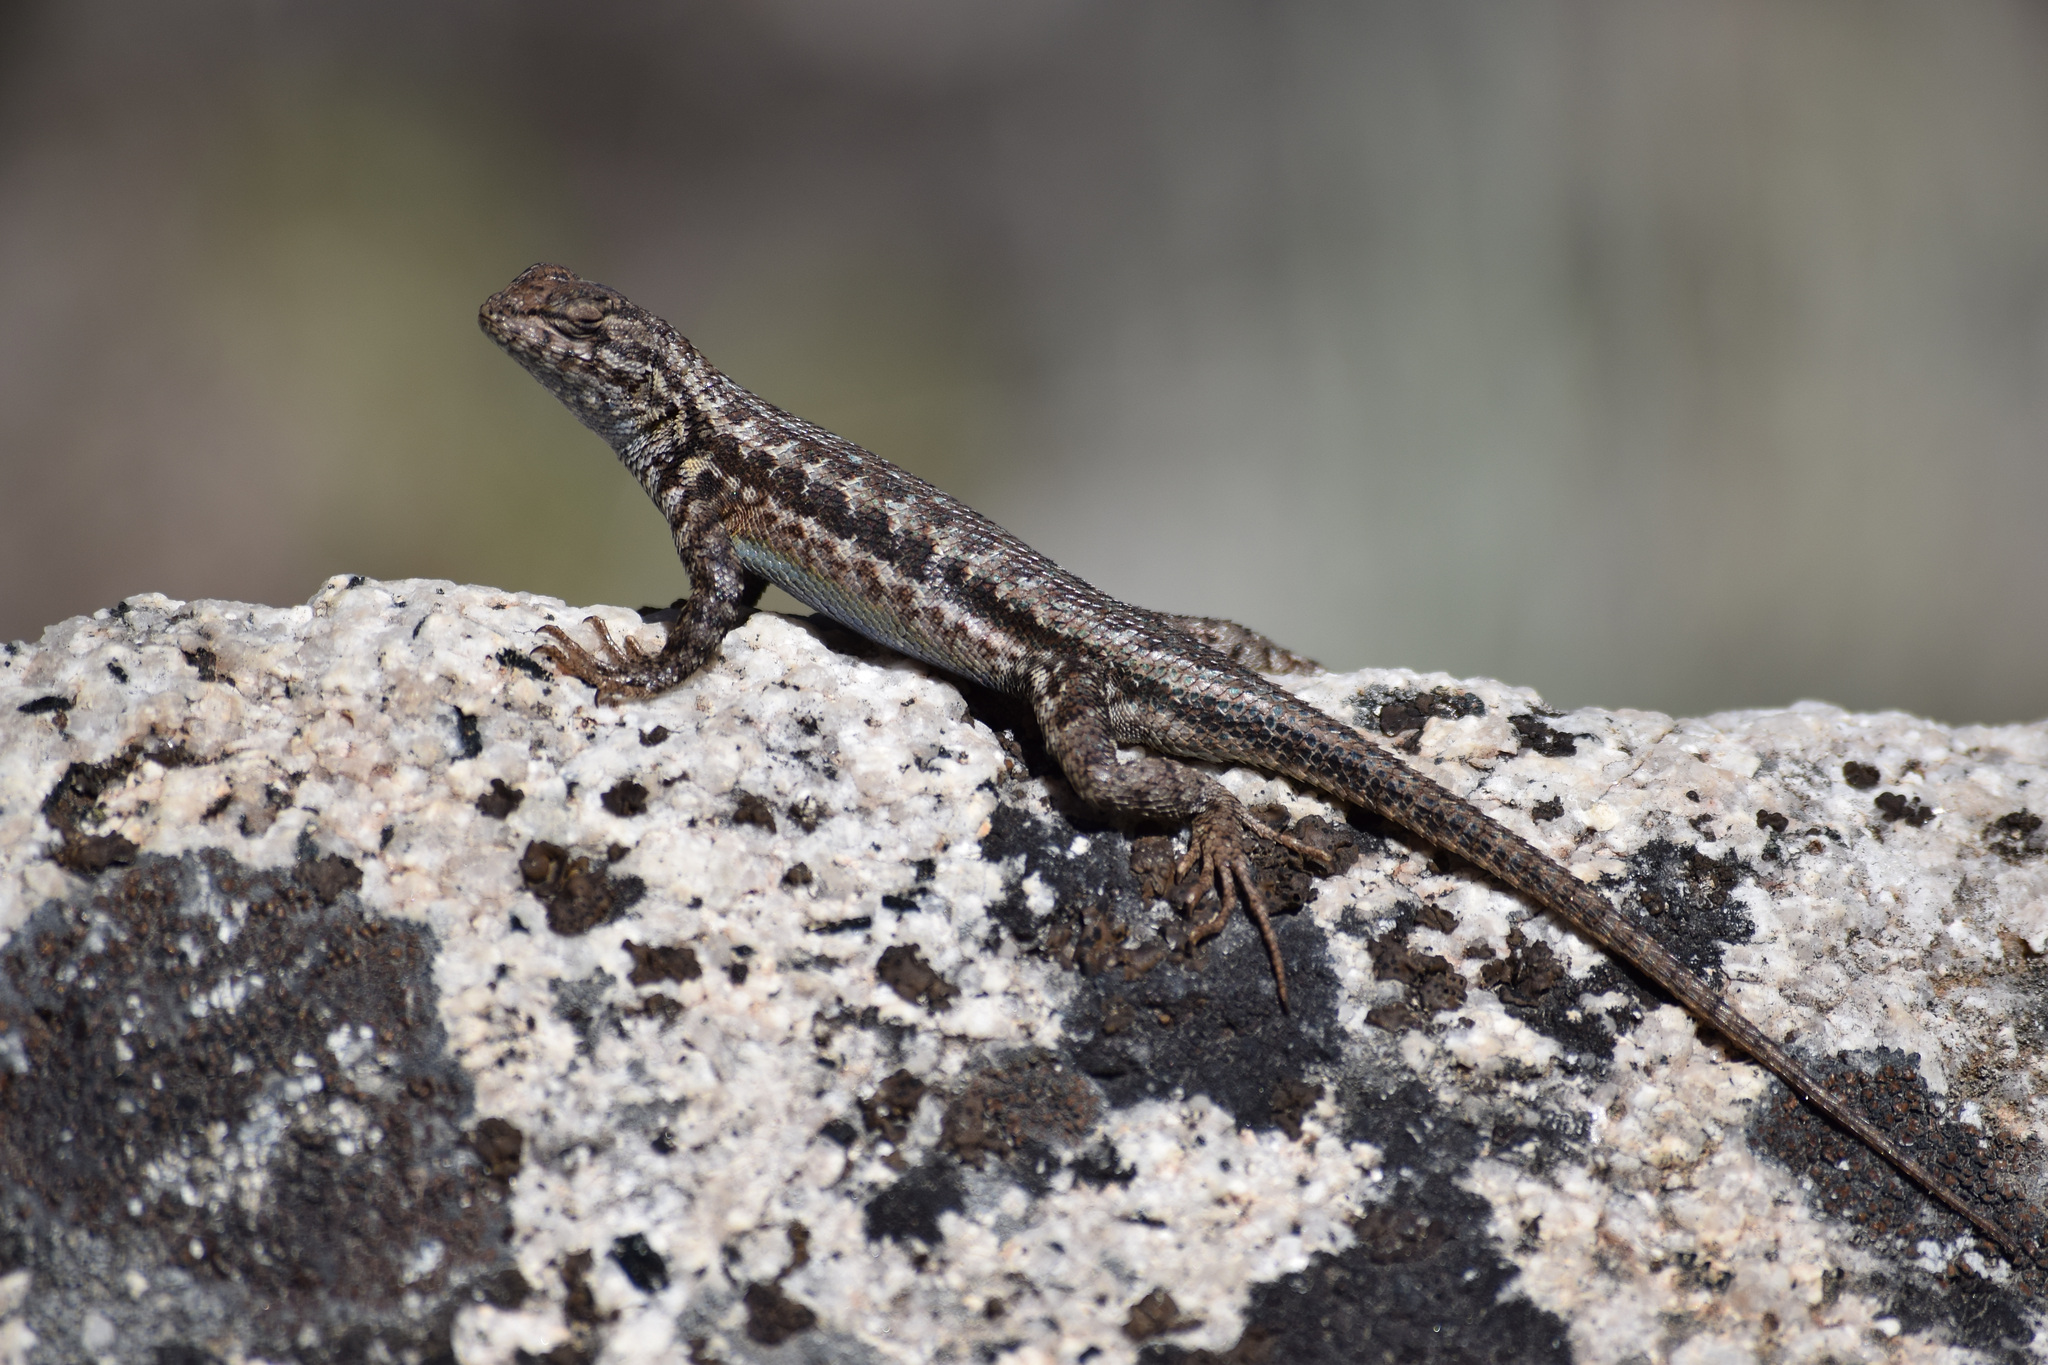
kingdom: Animalia
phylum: Chordata
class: Squamata
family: Phrynosomatidae
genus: Sceloporus
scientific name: Sceloporus graciosus
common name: Sagebrush lizard
